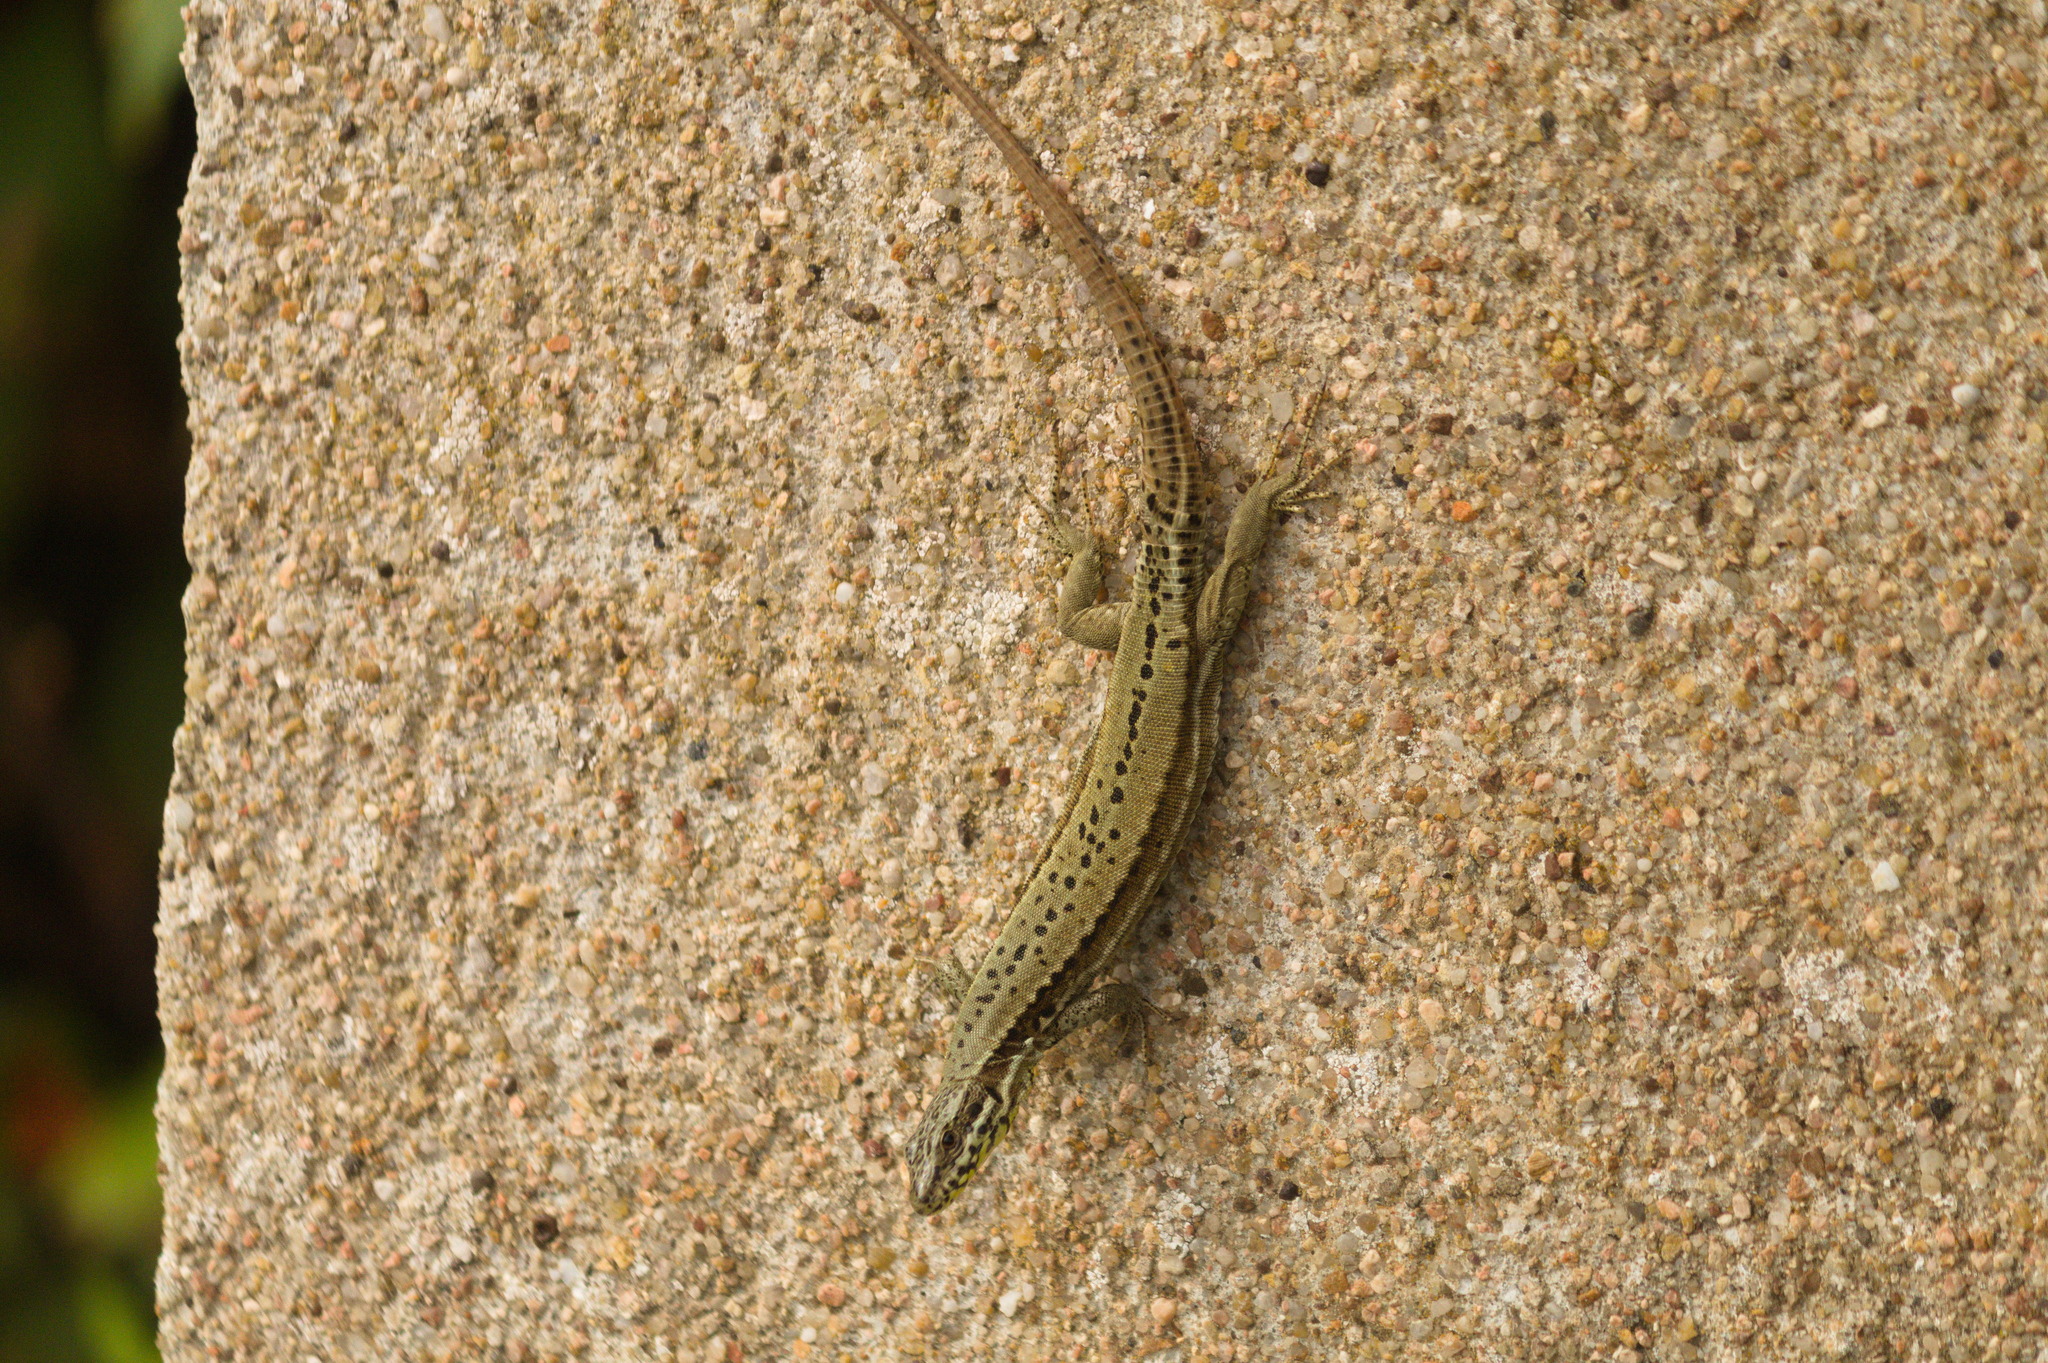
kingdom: Animalia
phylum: Chordata
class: Squamata
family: Lacertidae
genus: Podarcis
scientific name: Podarcis muralis
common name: Common wall lizard
